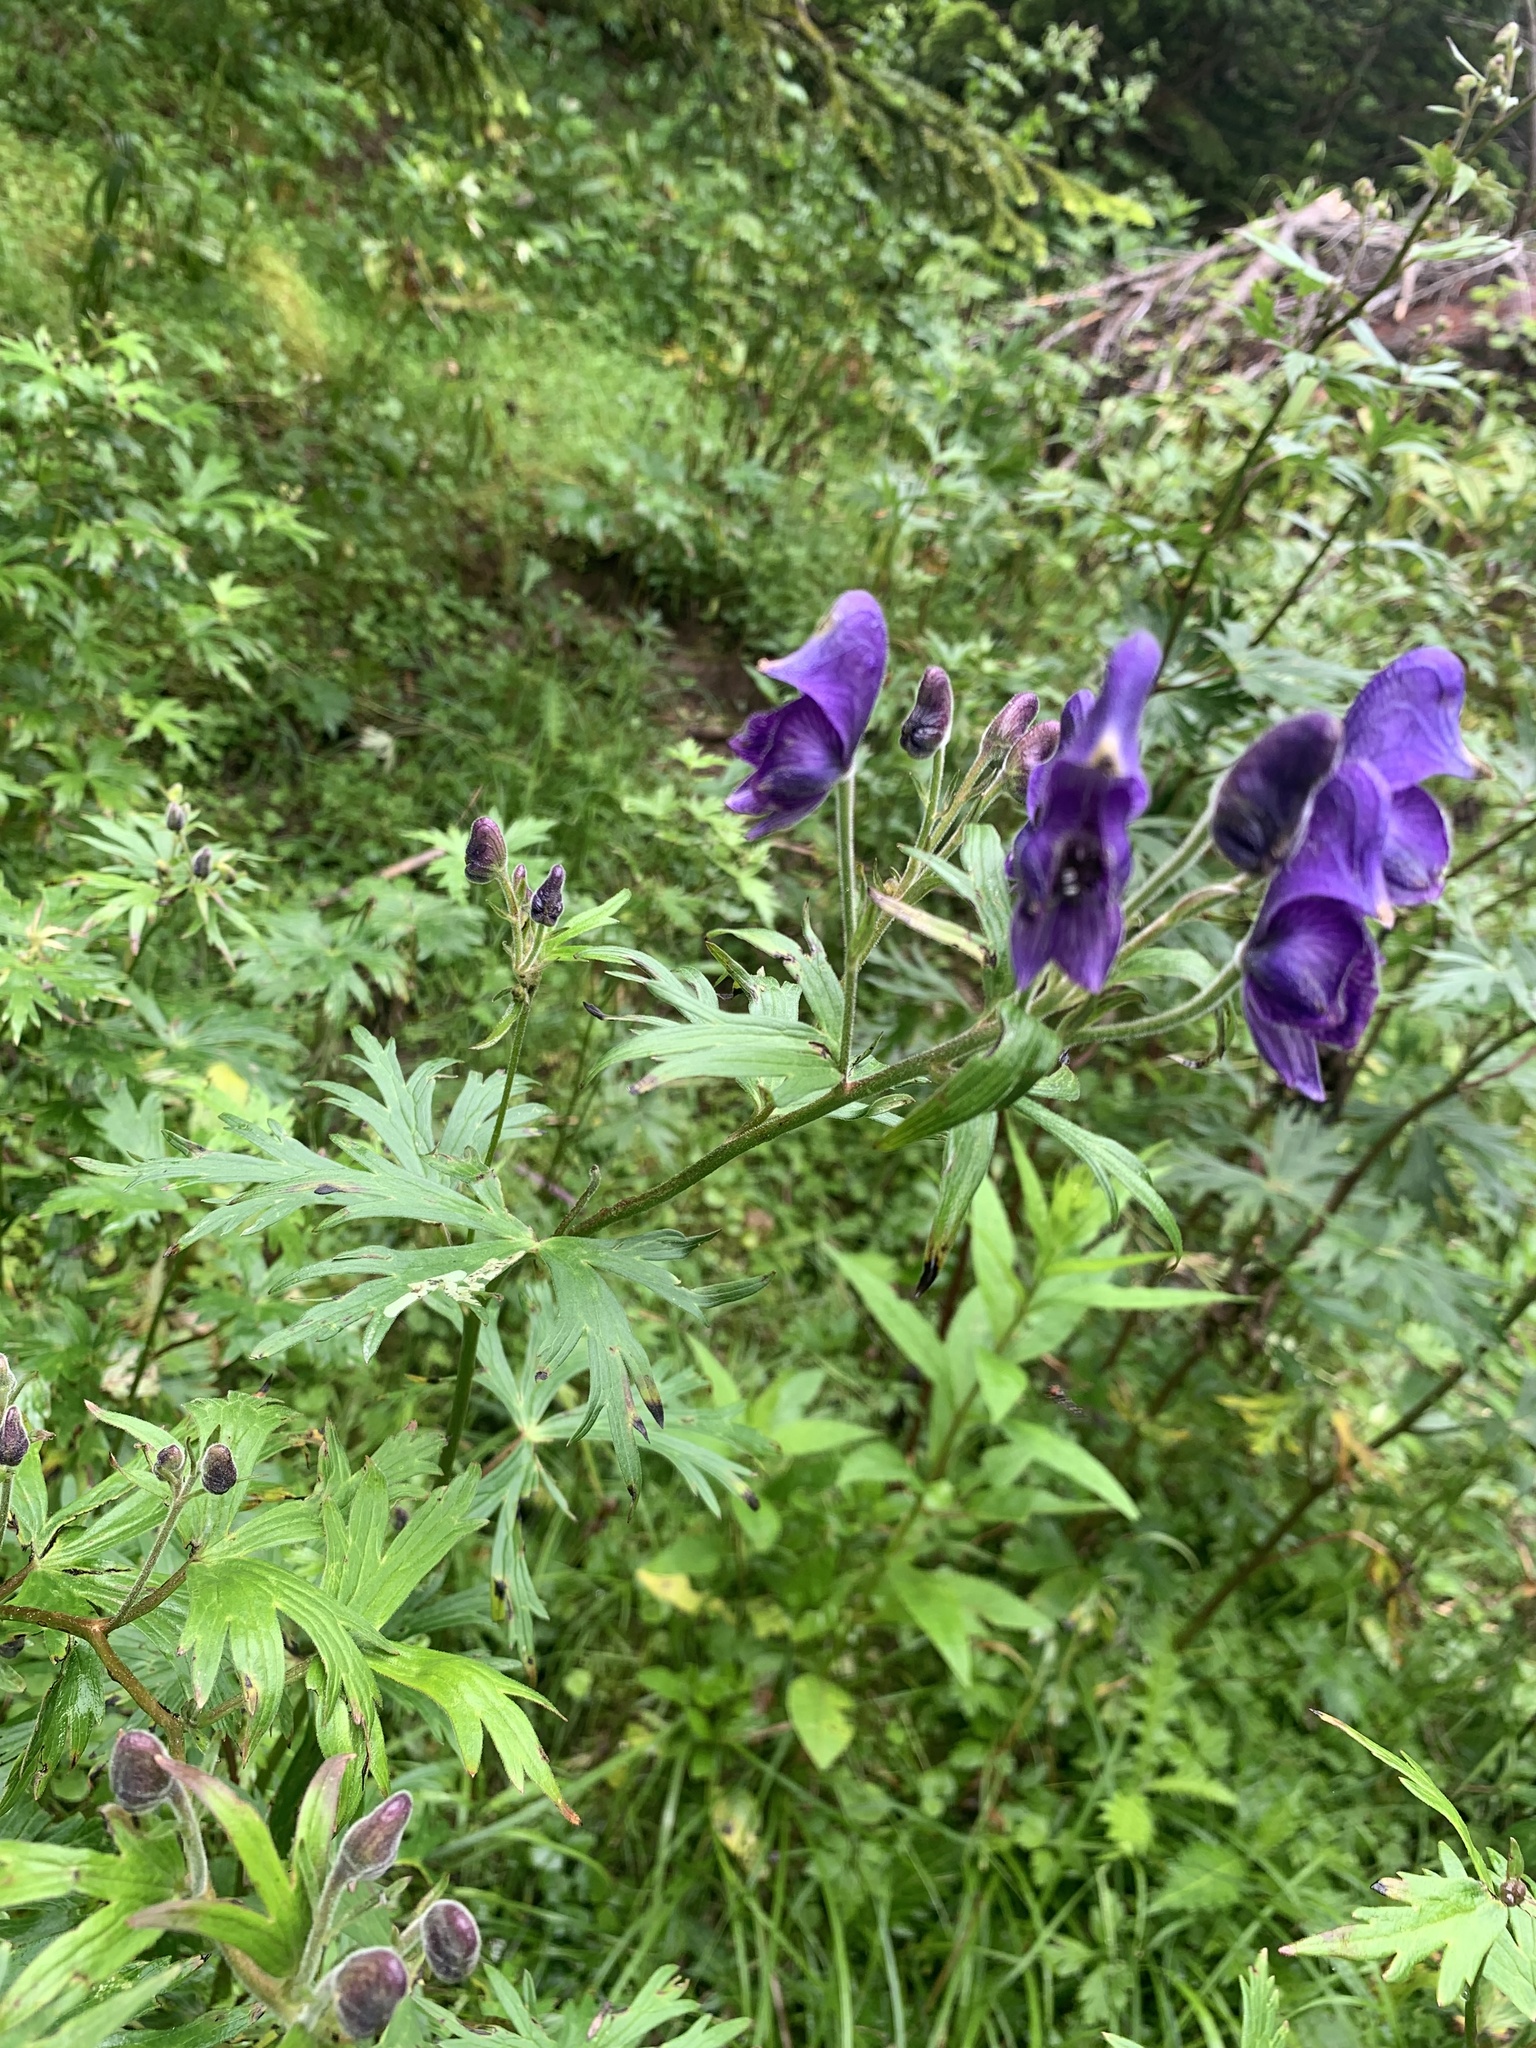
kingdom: Plantae
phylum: Tracheophyta
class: Magnoliopsida
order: Ranunculales
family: Ranunculaceae
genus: Aconitum
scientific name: Aconitum senanense
